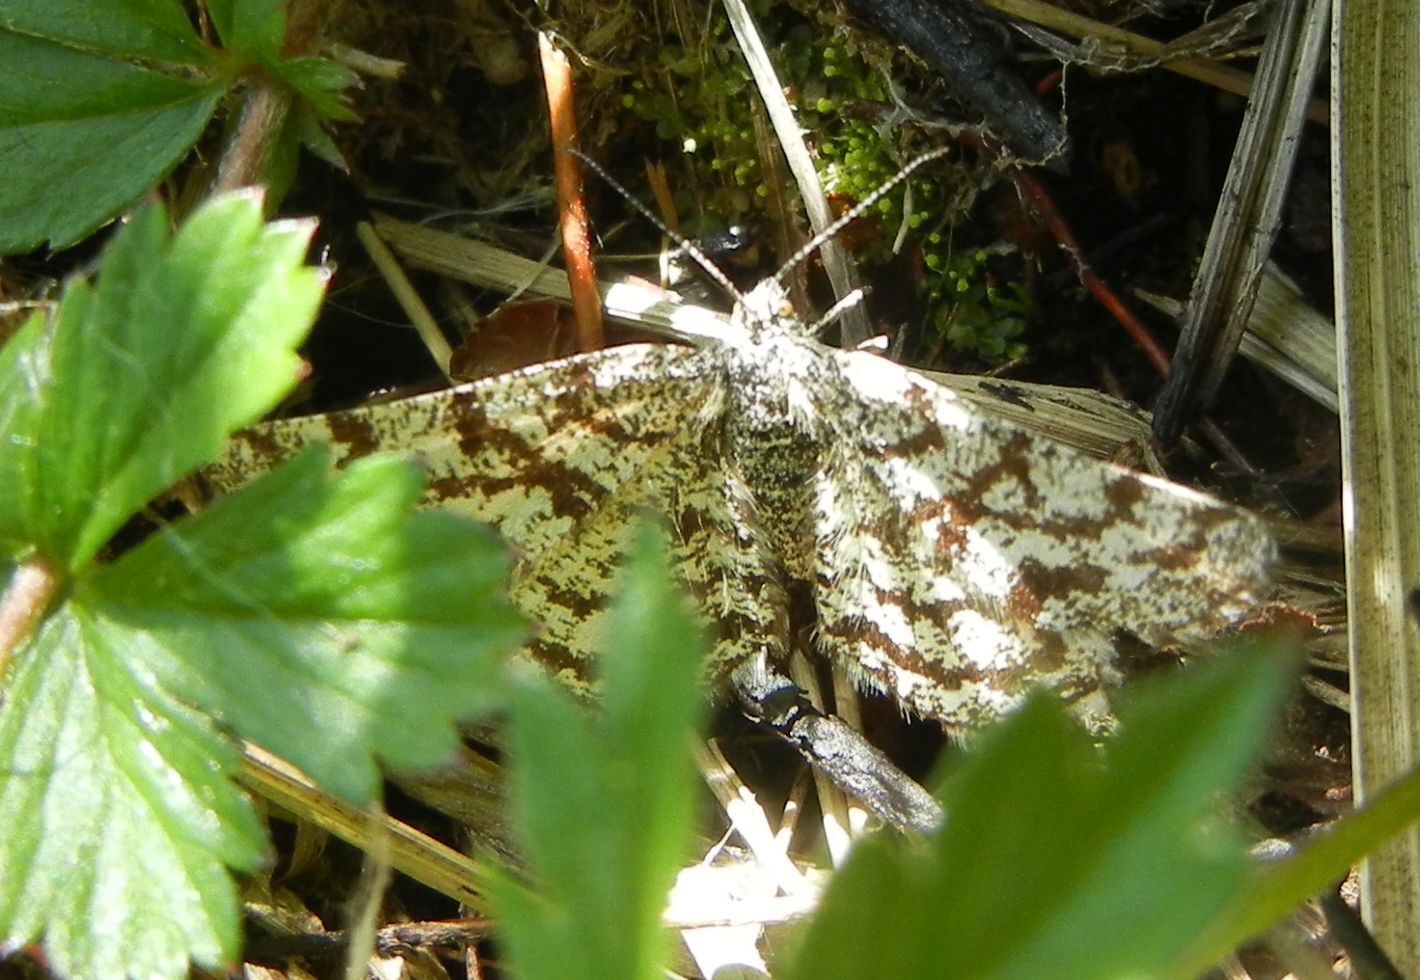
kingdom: Animalia
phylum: Arthropoda
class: Insecta
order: Lepidoptera
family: Geometridae
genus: Ematurga
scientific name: Ematurga atomaria
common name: Common heath
